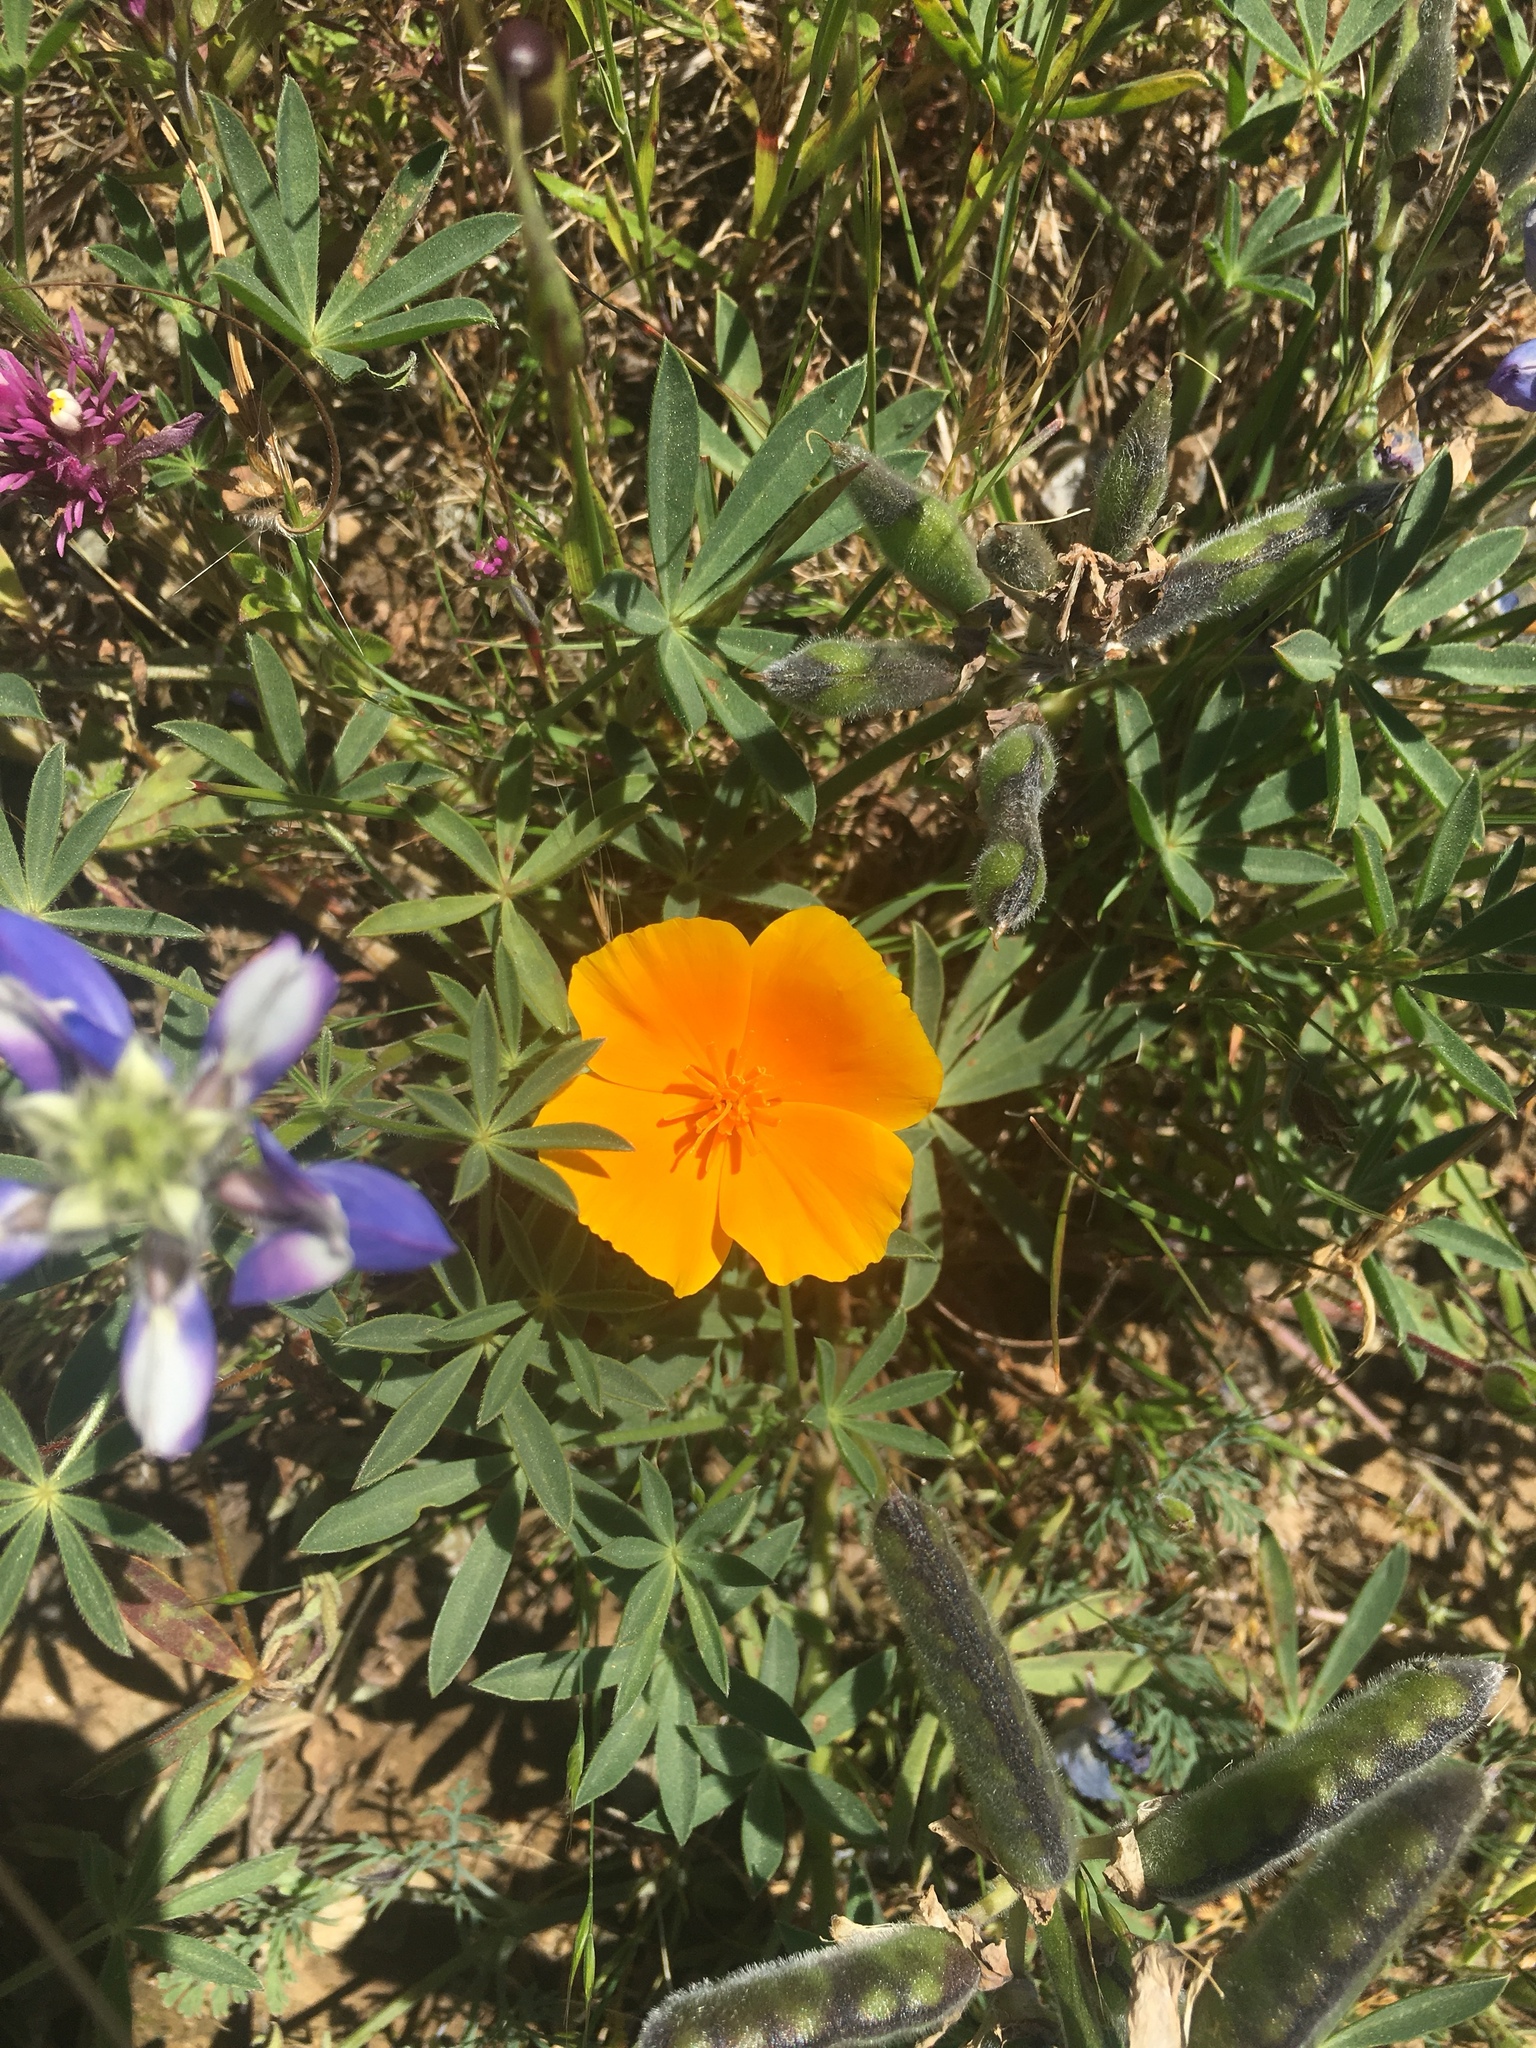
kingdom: Plantae
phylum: Tracheophyta
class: Magnoliopsida
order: Ranunculales
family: Papaveraceae
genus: Eschscholzia
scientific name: Eschscholzia californica
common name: California poppy
